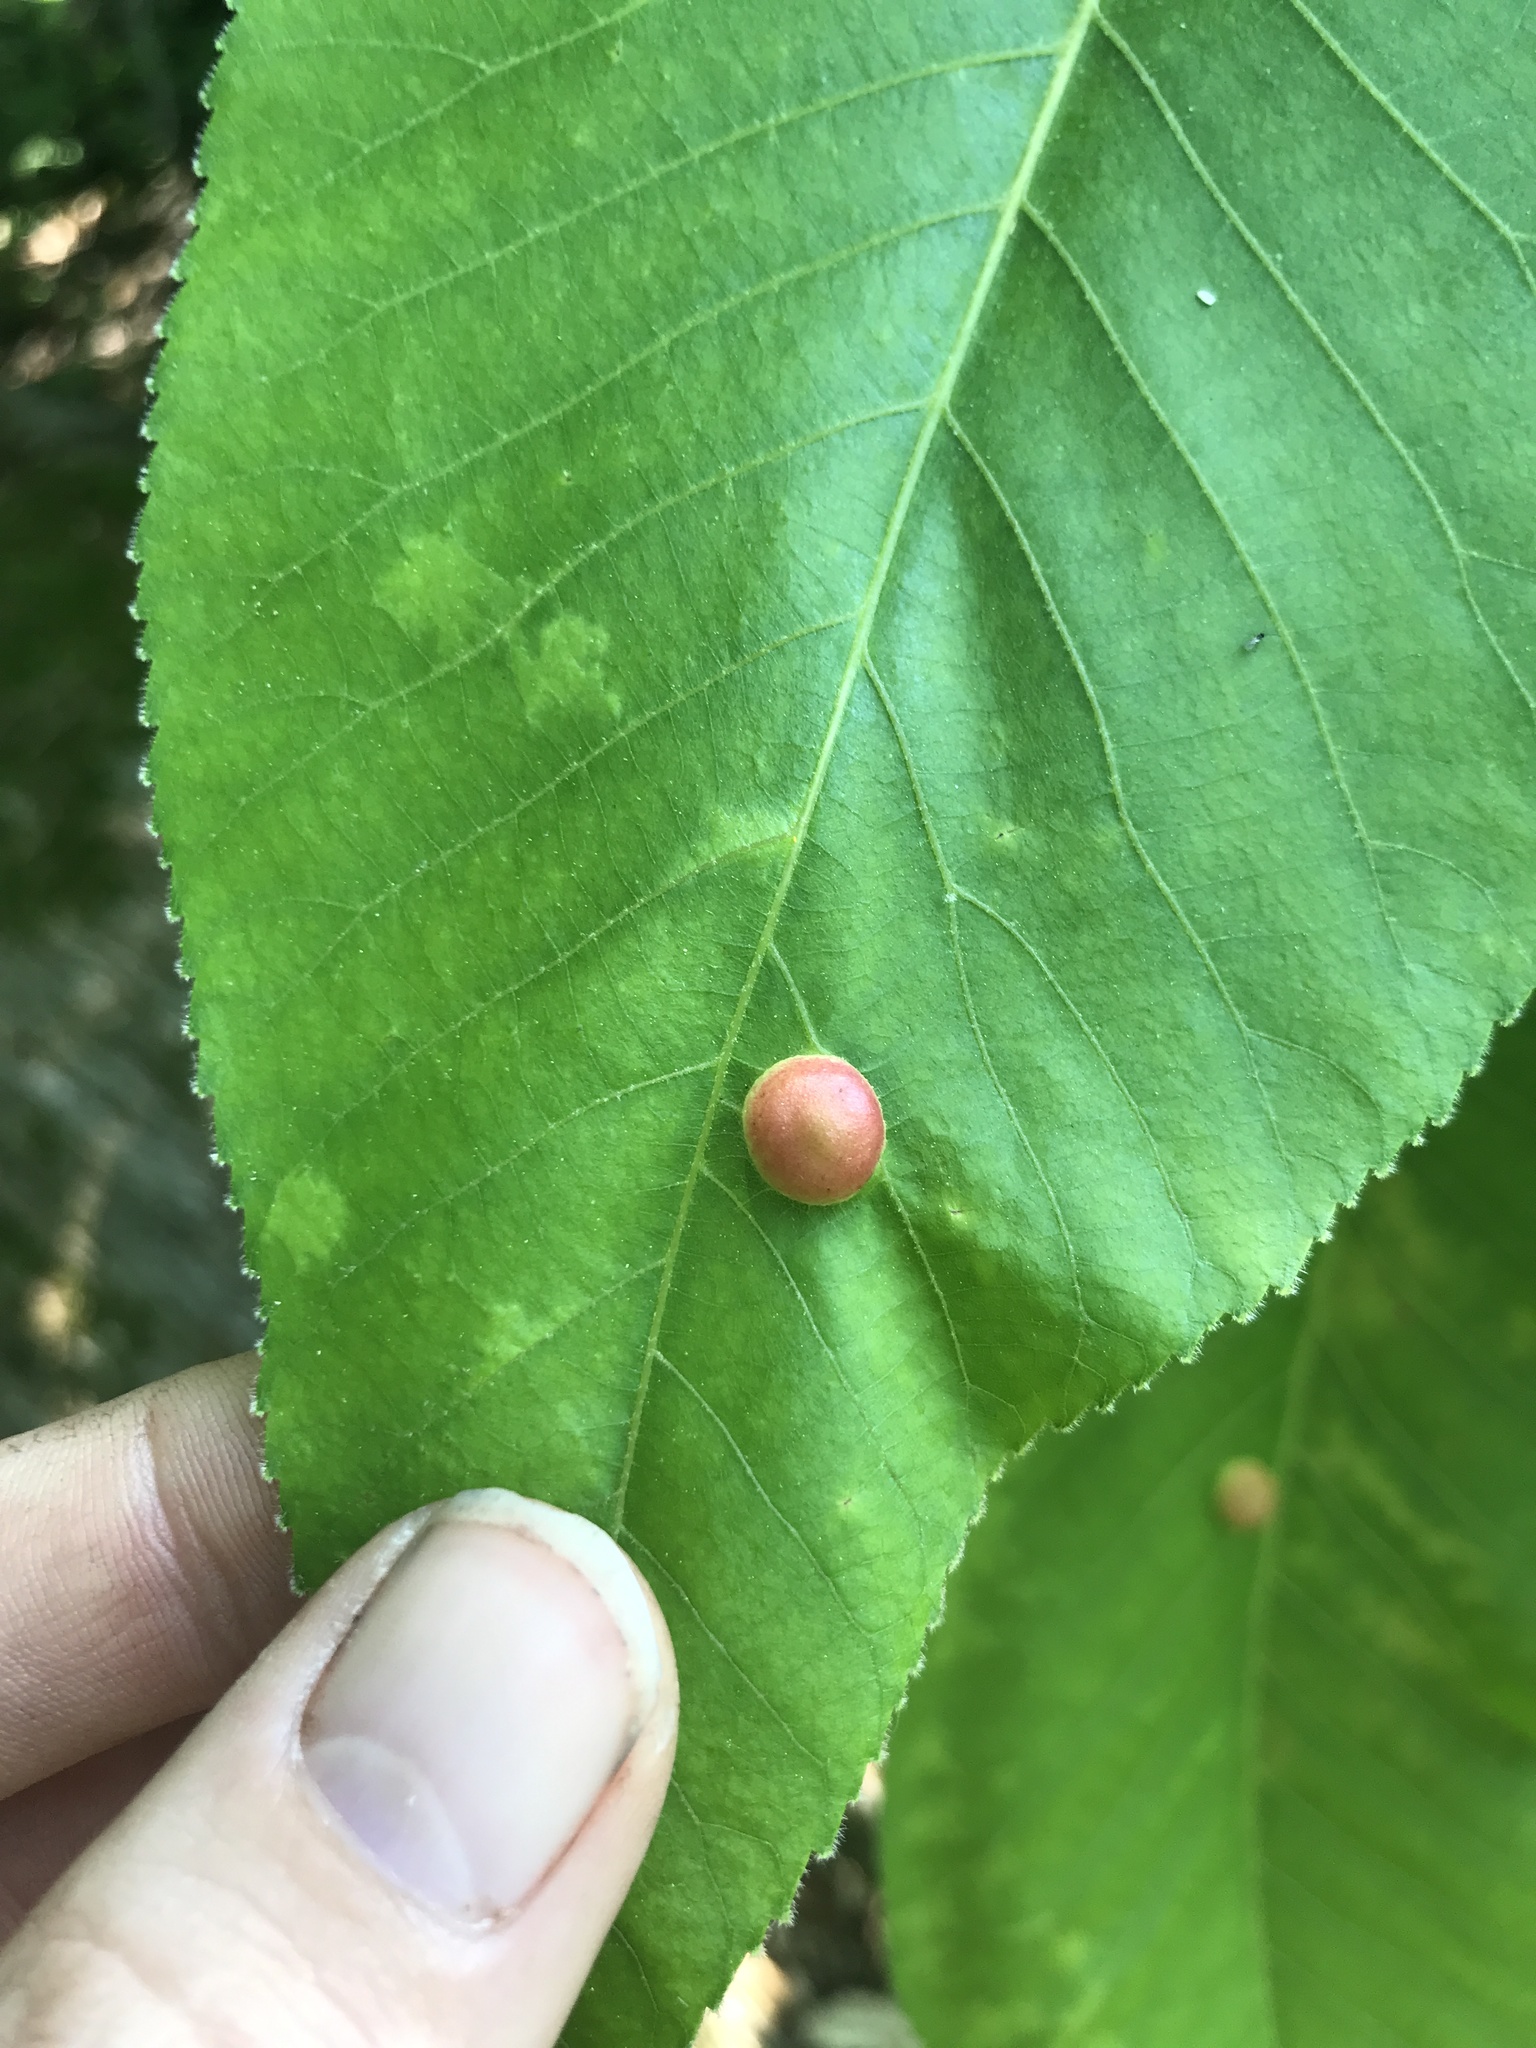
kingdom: Animalia
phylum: Arthropoda
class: Insecta
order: Hemiptera
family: Phylloxeridae
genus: Phylloxera
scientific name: Phylloxera caryae-globuli
